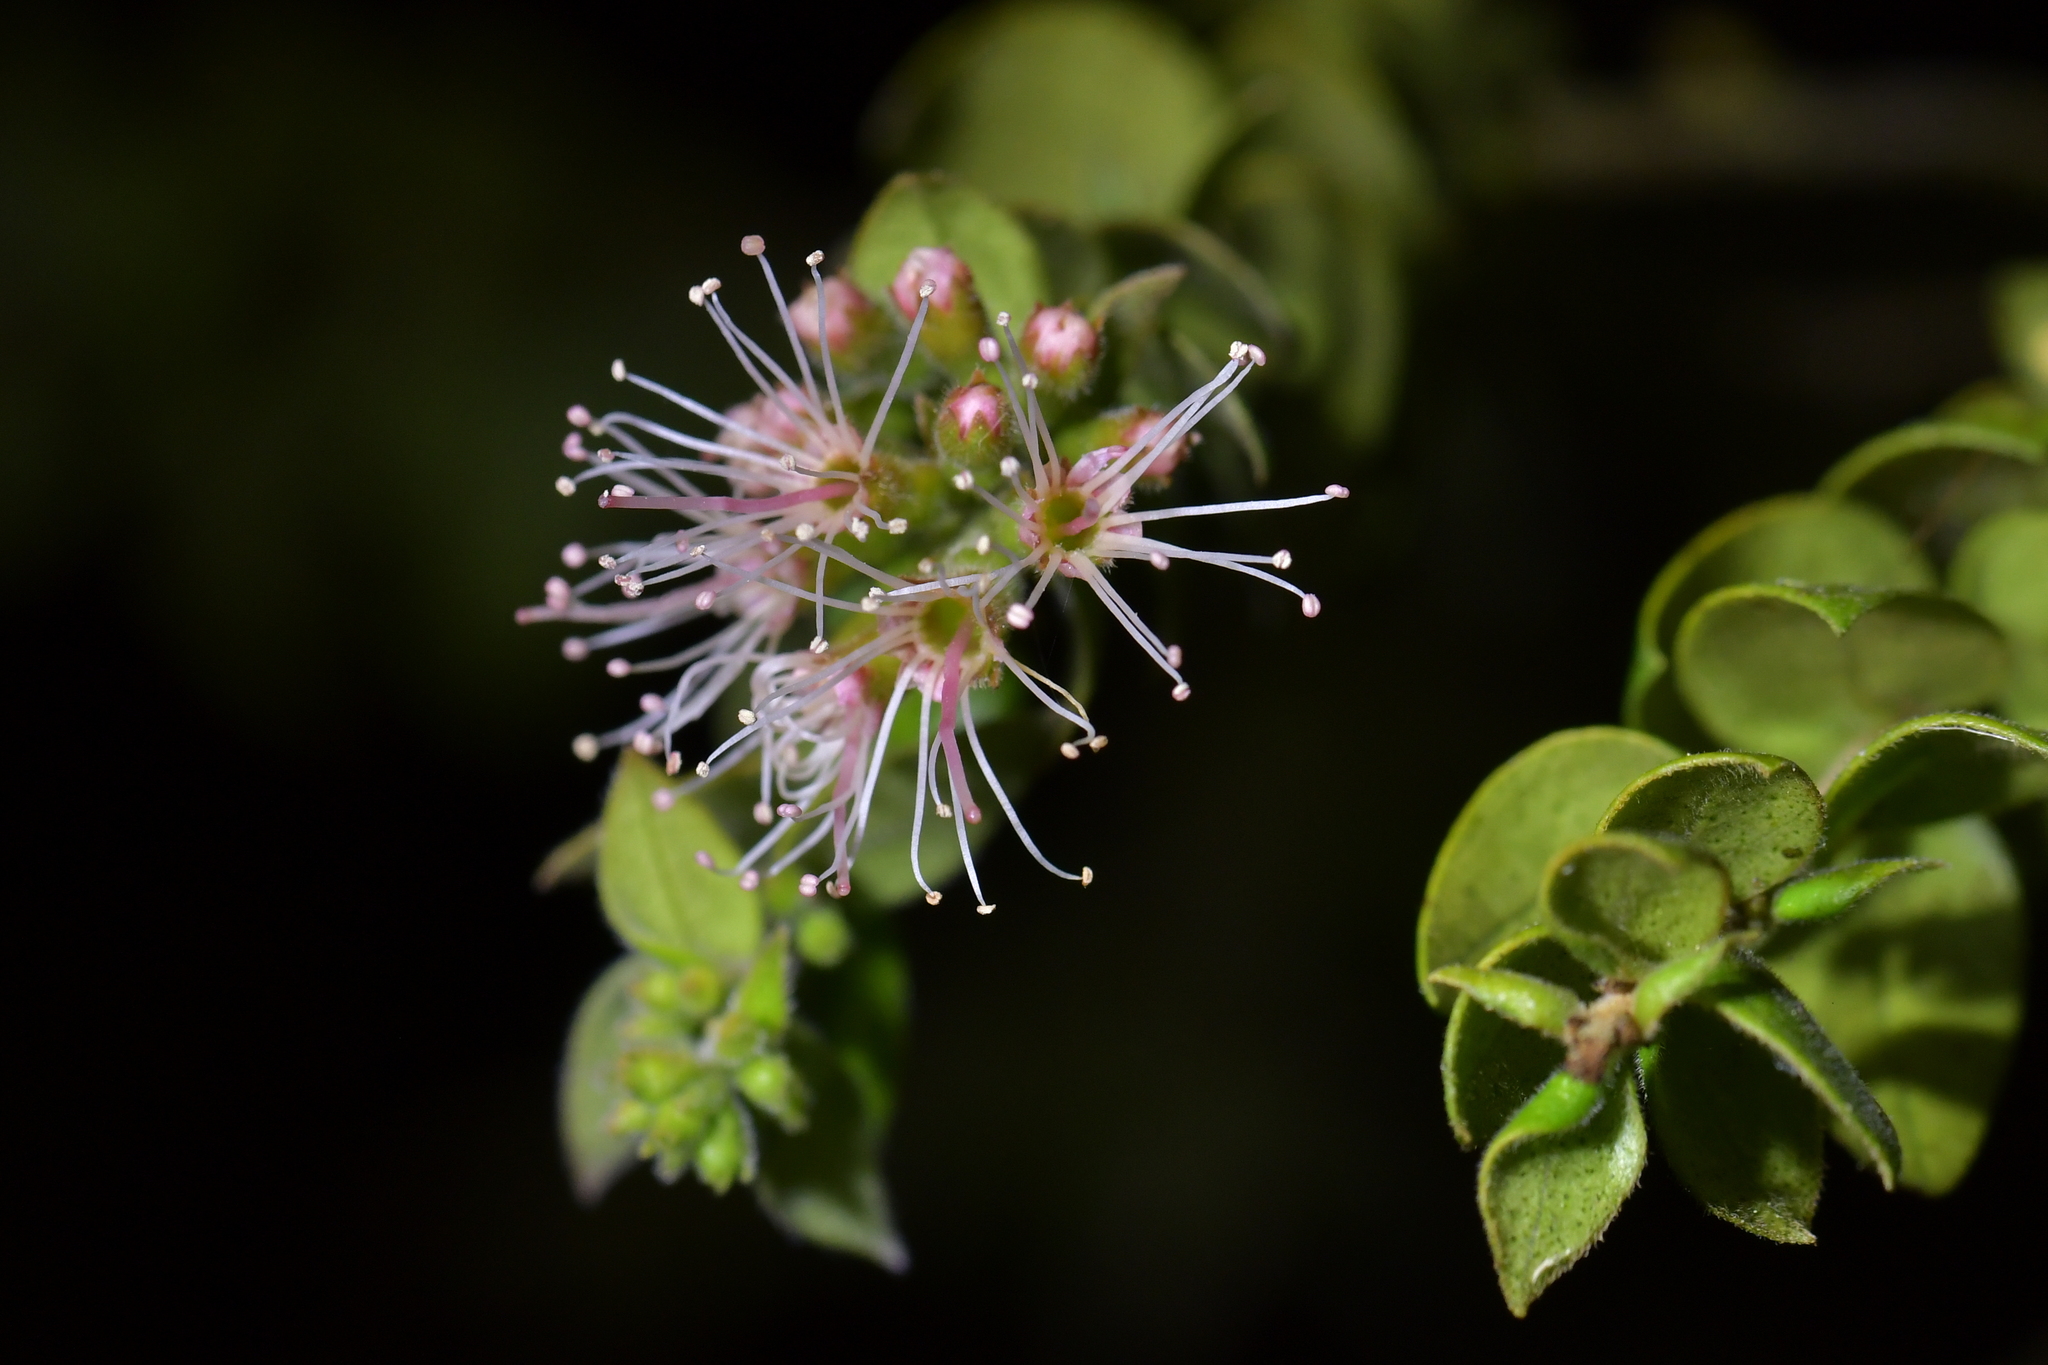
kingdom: Plantae
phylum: Tracheophyta
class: Magnoliopsida
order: Myrtales
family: Myrtaceae
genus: Metrosideros
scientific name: Metrosideros colensoi
